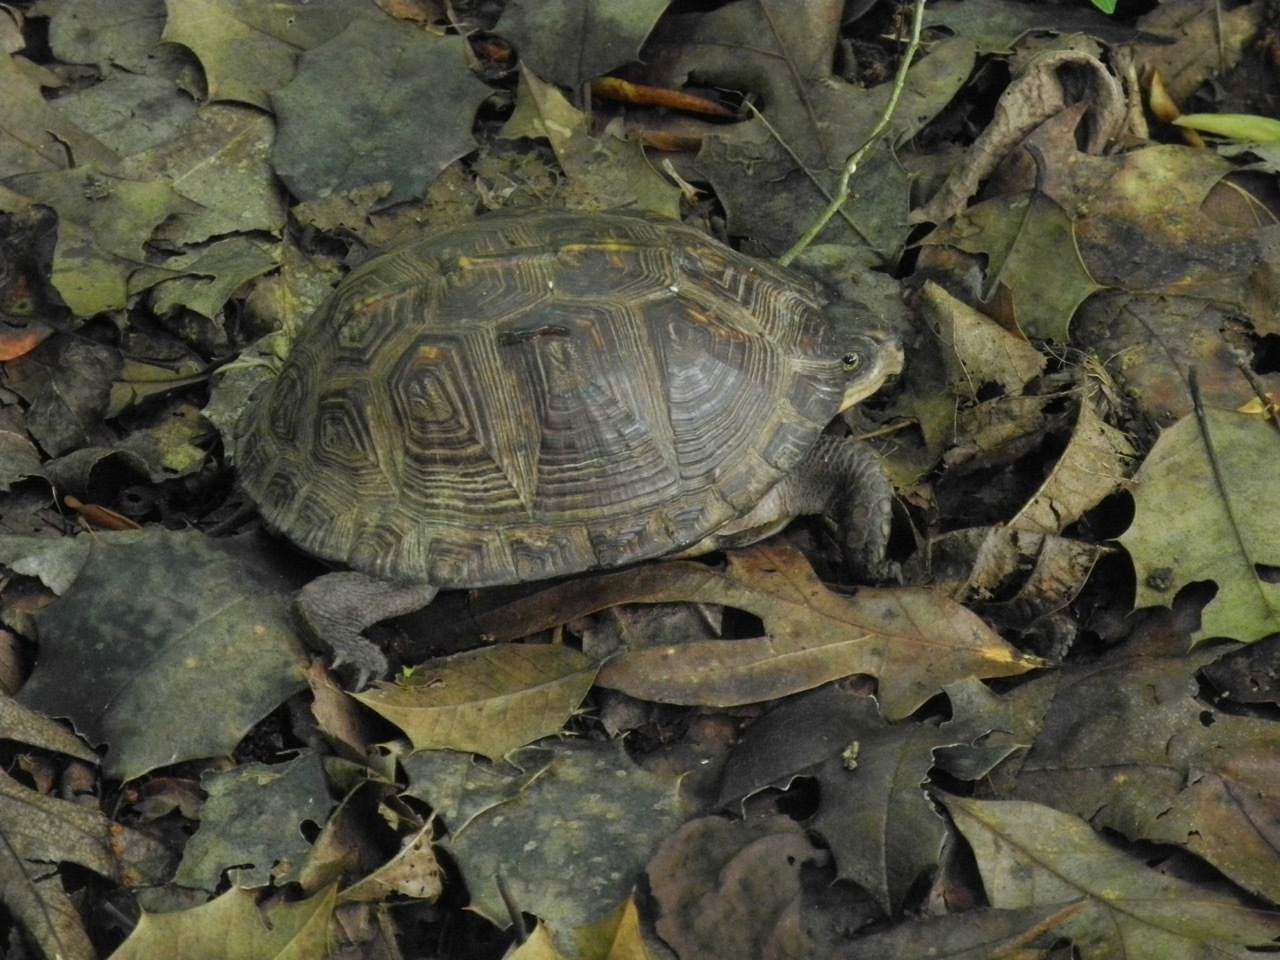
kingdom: Animalia
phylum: Chordata
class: Testudines
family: Emydidae
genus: Terrapene
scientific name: Terrapene carolina
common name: Common box turtle
